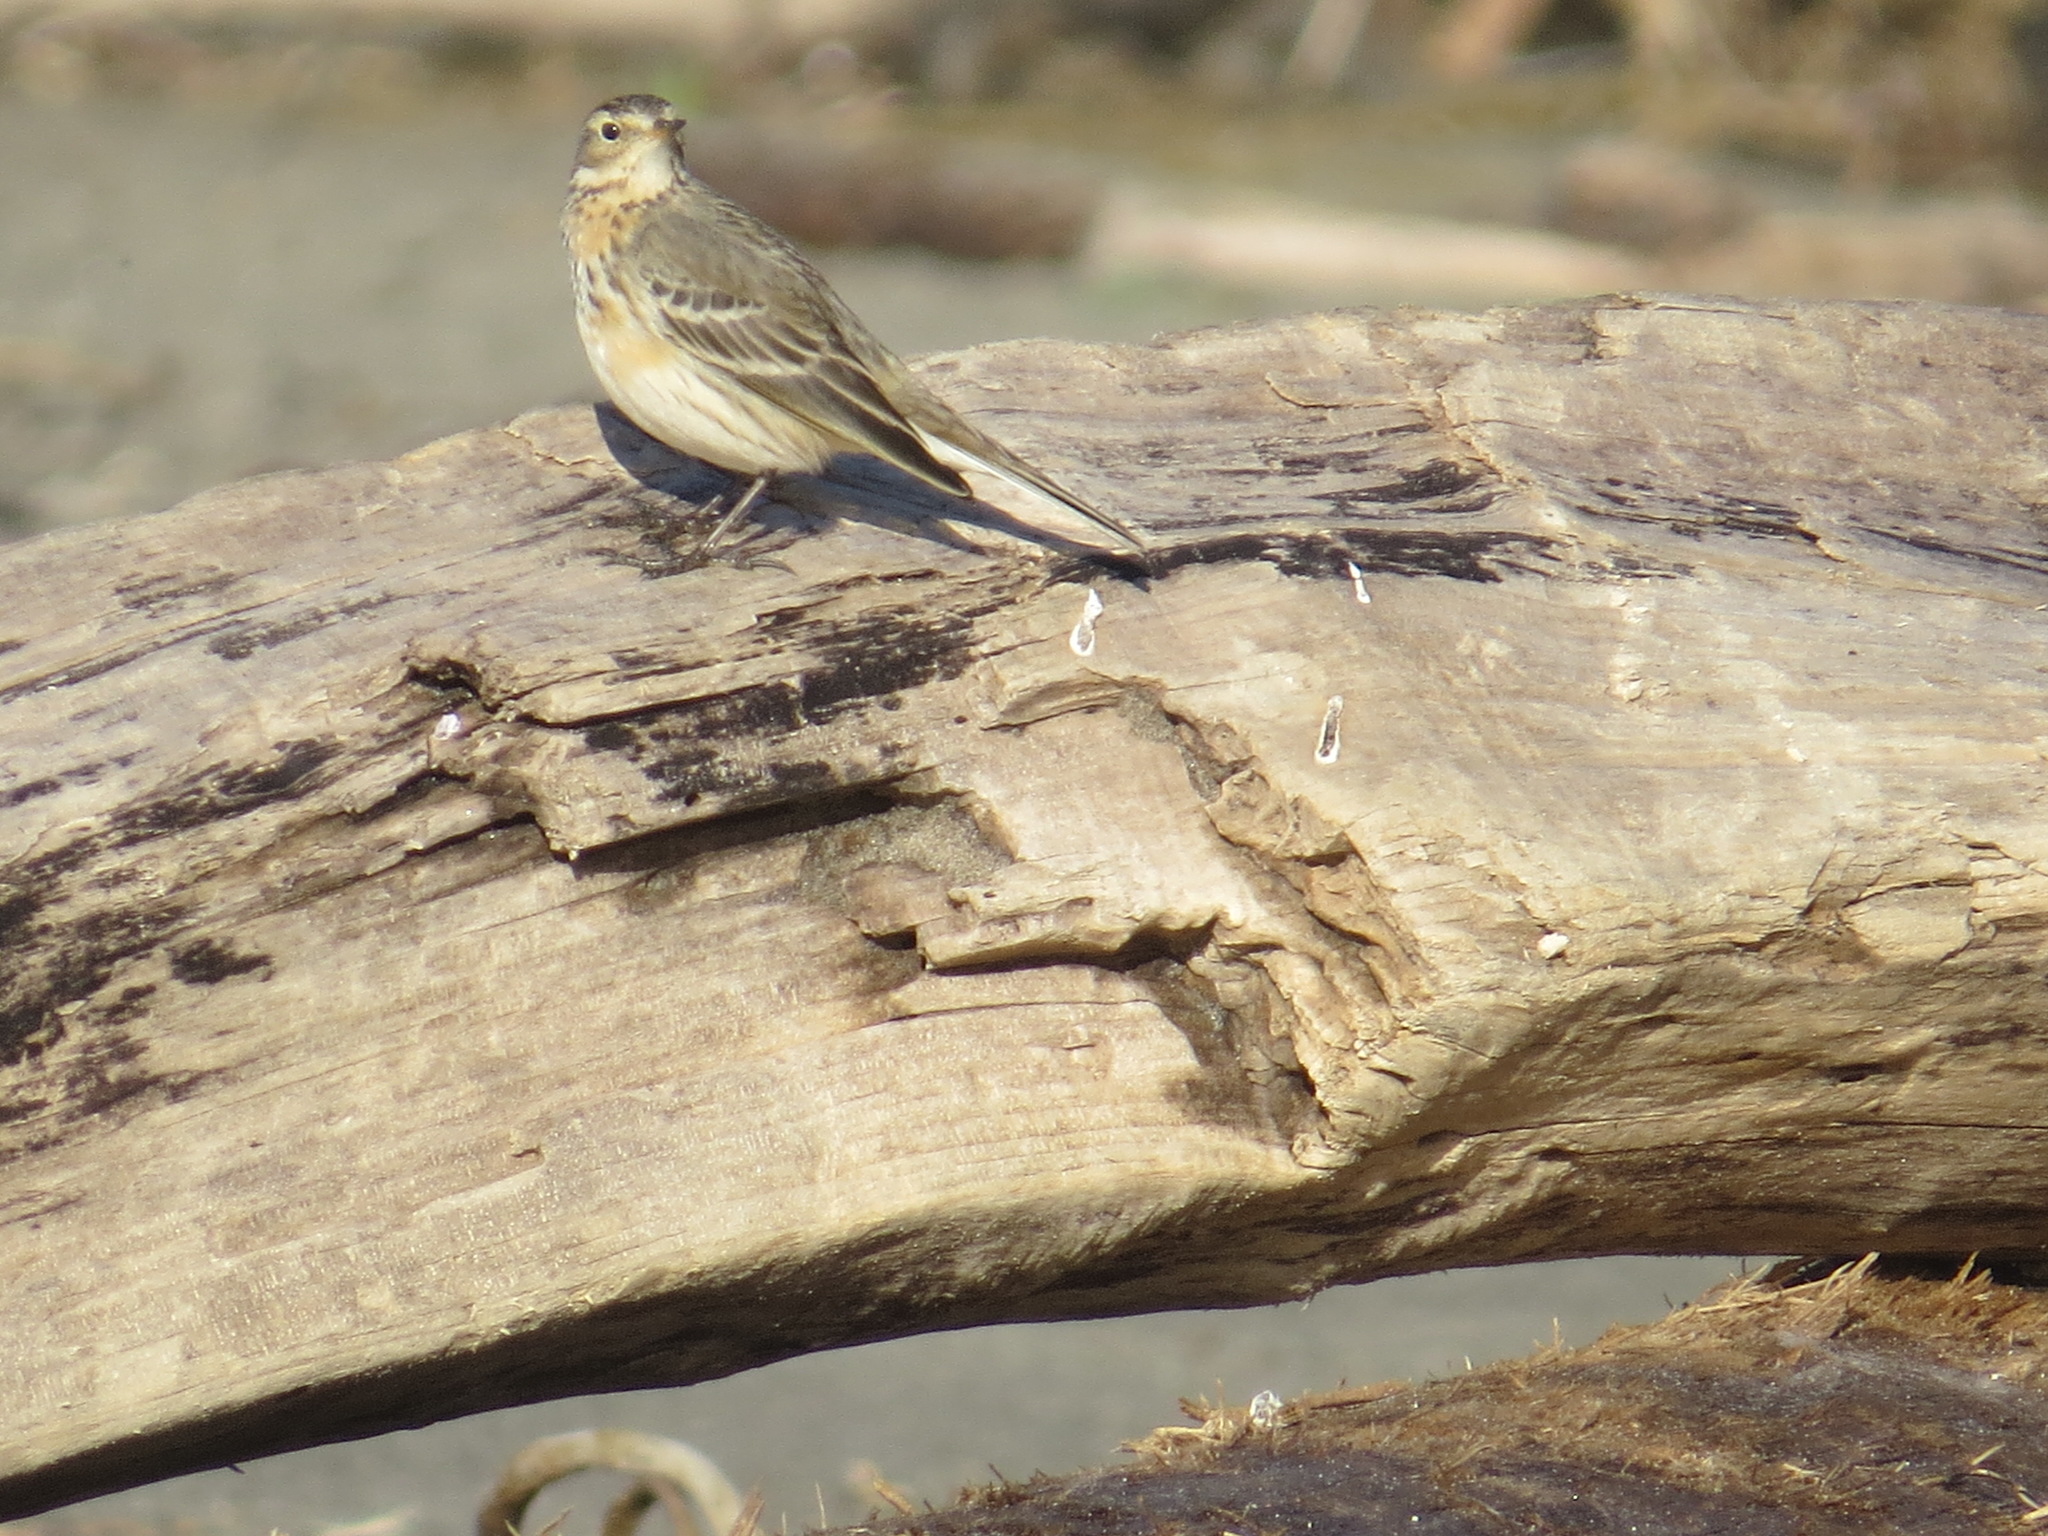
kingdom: Animalia
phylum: Chordata
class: Aves
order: Passeriformes
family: Motacillidae
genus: Anthus
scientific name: Anthus rubescens
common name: Buff-bellied pipit
